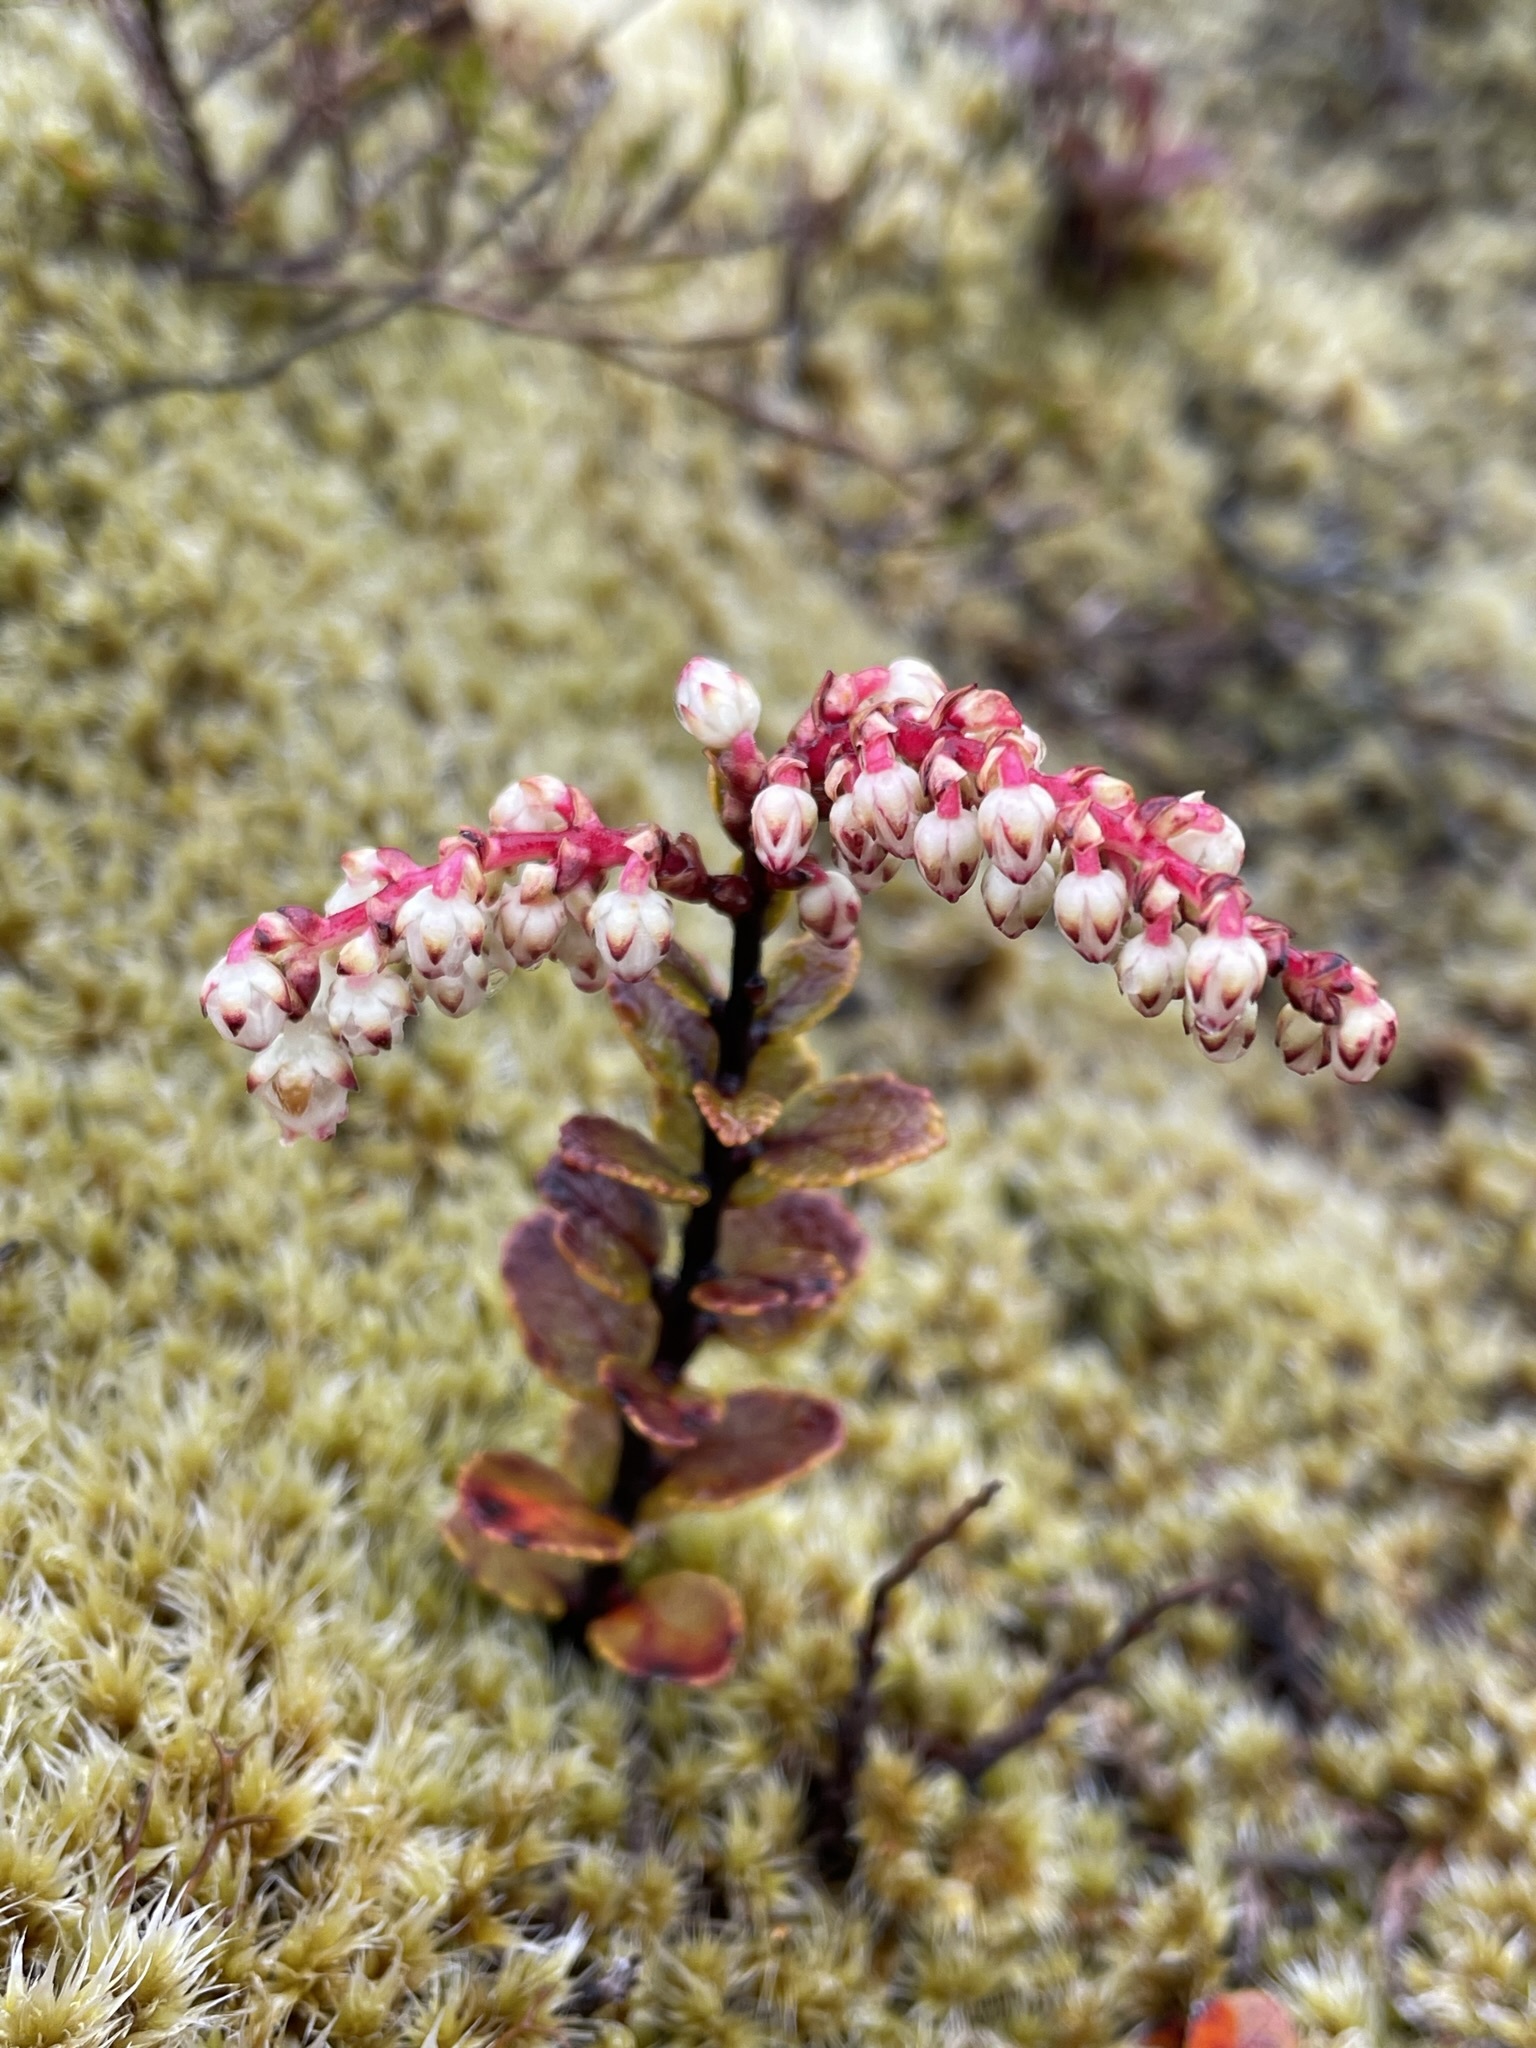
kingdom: Plantae
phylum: Tracheophyta
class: Magnoliopsida
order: Ericales
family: Ericaceae
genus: Gaultheria
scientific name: Gaultheria colensoi
